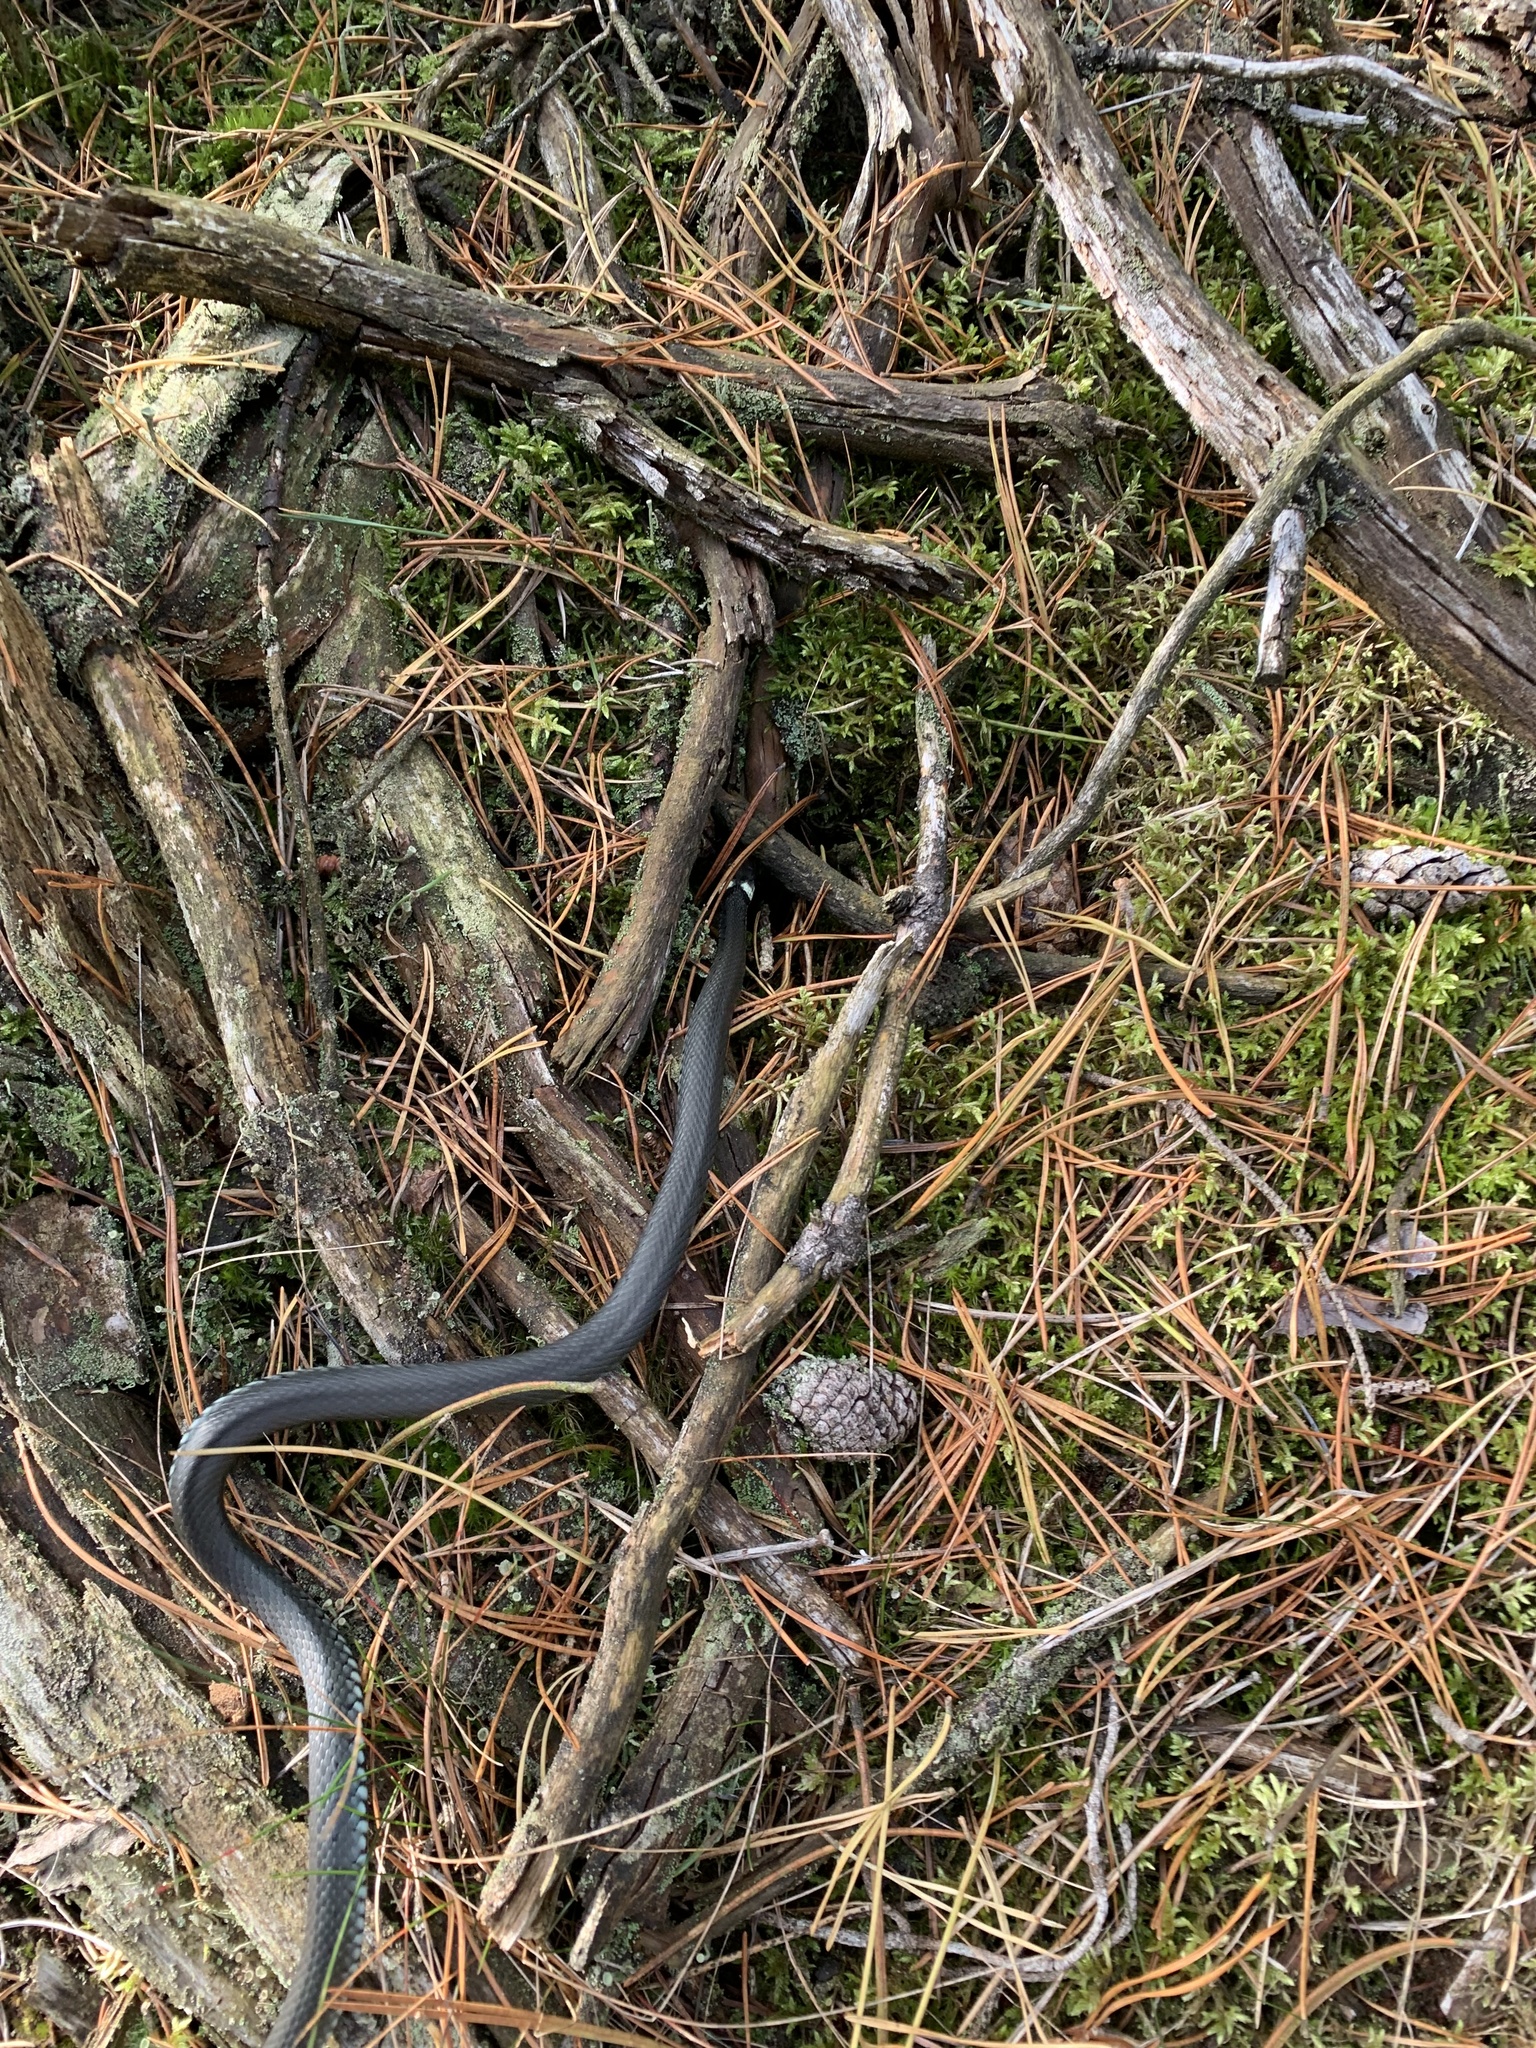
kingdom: Animalia
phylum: Chordata
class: Squamata
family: Colubridae
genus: Natrix
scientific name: Natrix natrix
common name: Grass snake
